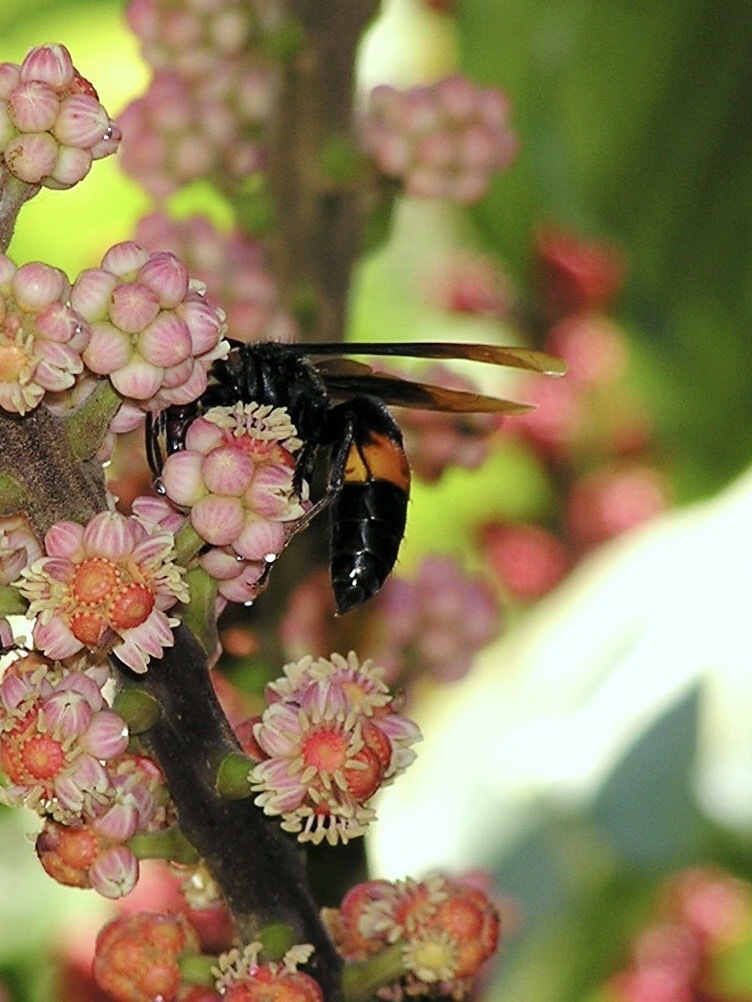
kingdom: Animalia
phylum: Arthropoda
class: Insecta
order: Hymenoptera
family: Vespidae
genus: Vespa
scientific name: Vespa tropica
